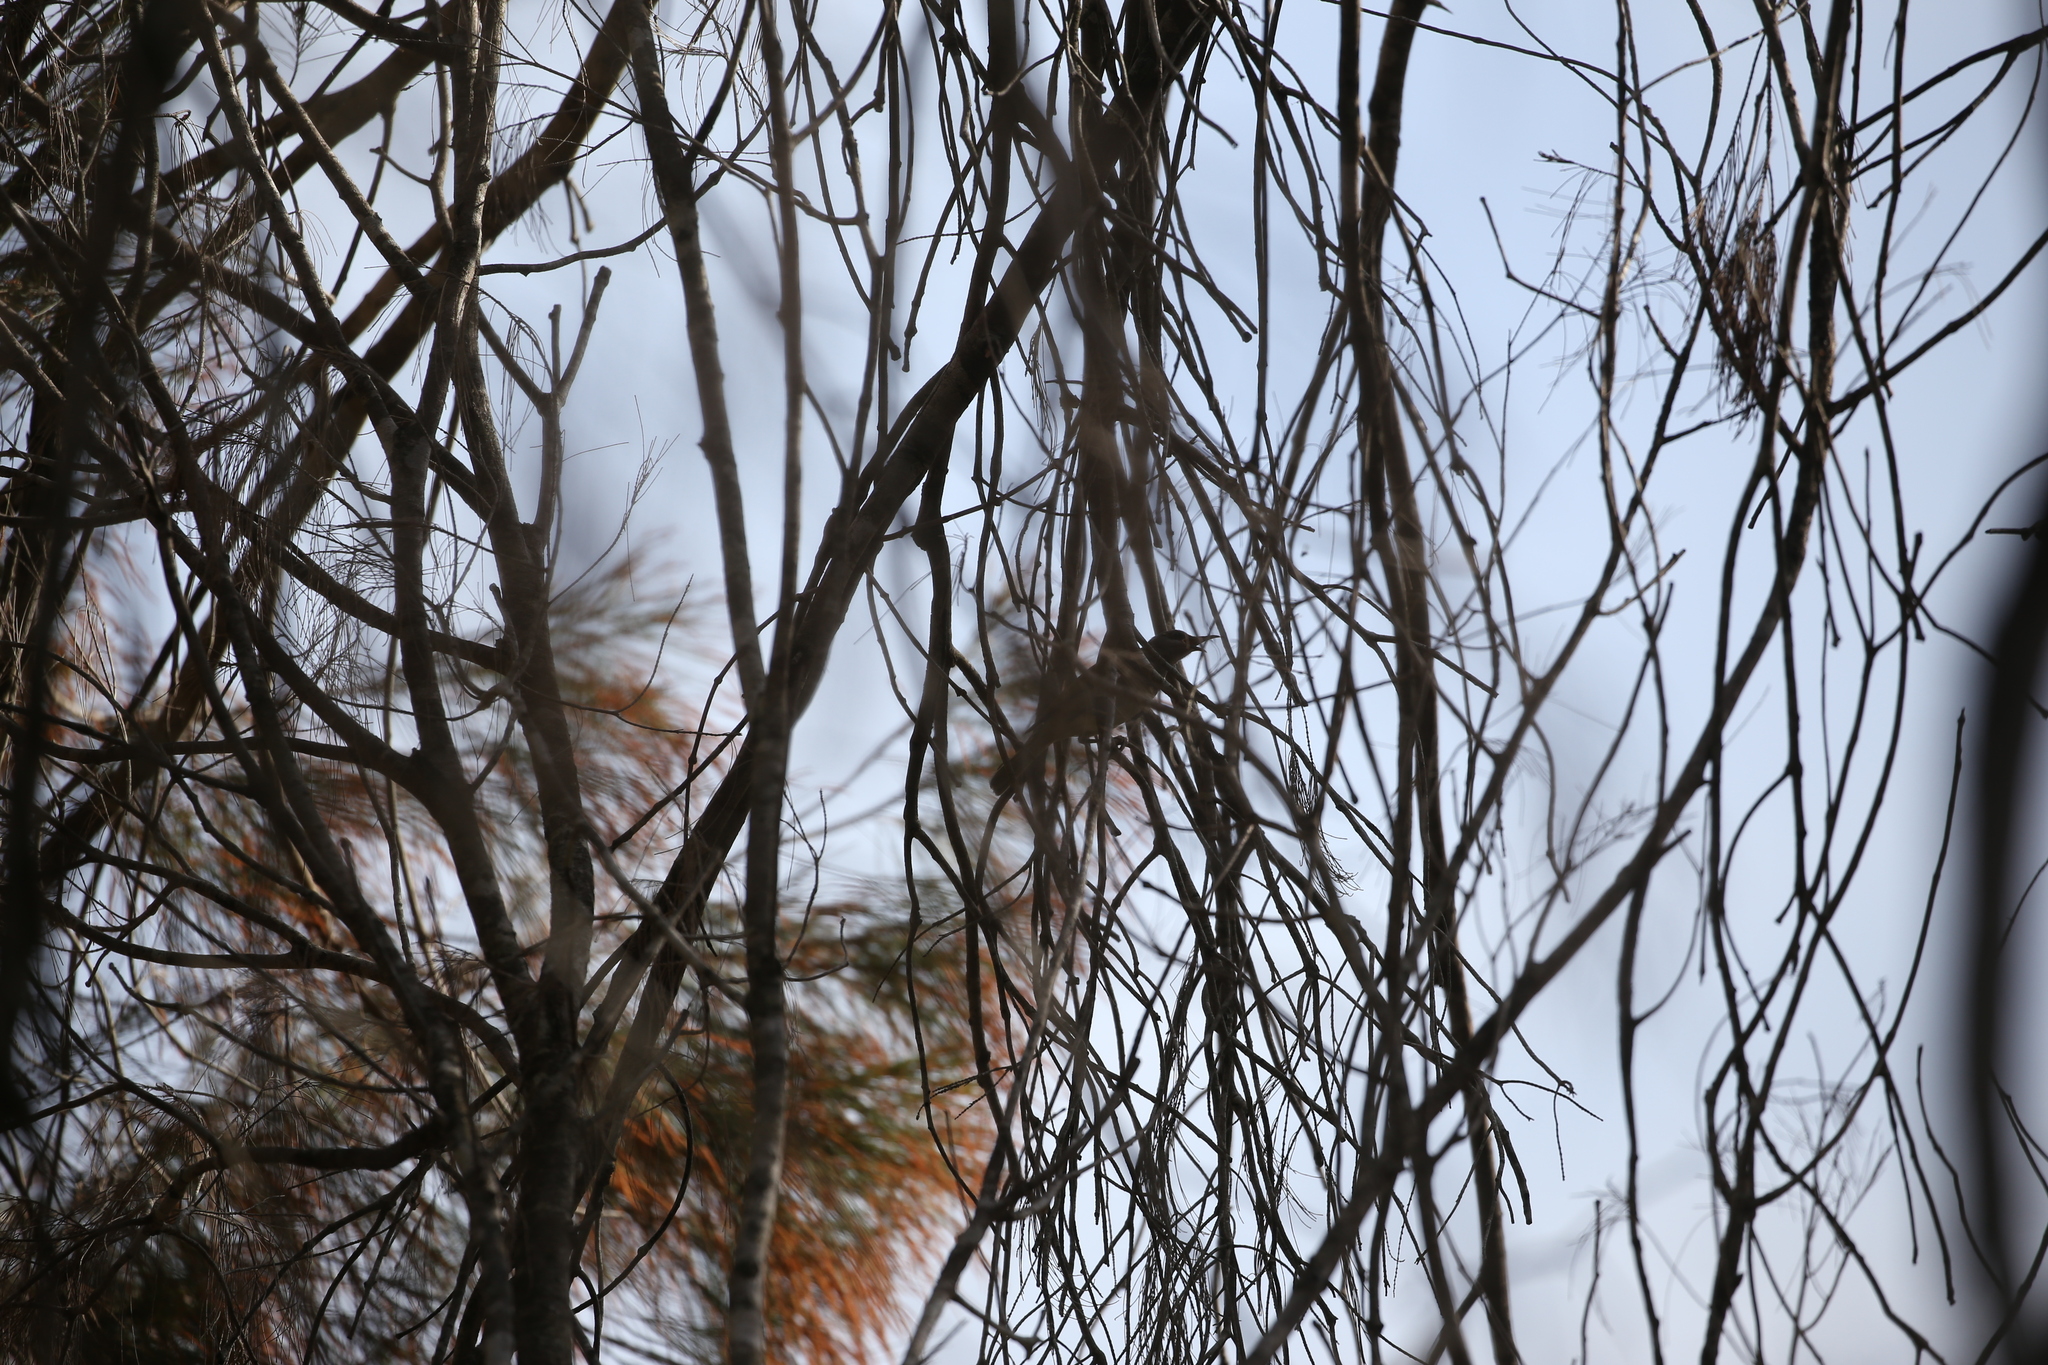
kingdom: Animalia
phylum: Chordata
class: Aves
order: Passeriformes
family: Meliphagidae
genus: Lichmera
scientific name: Lichmera indistincta
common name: Brown honeyeater
